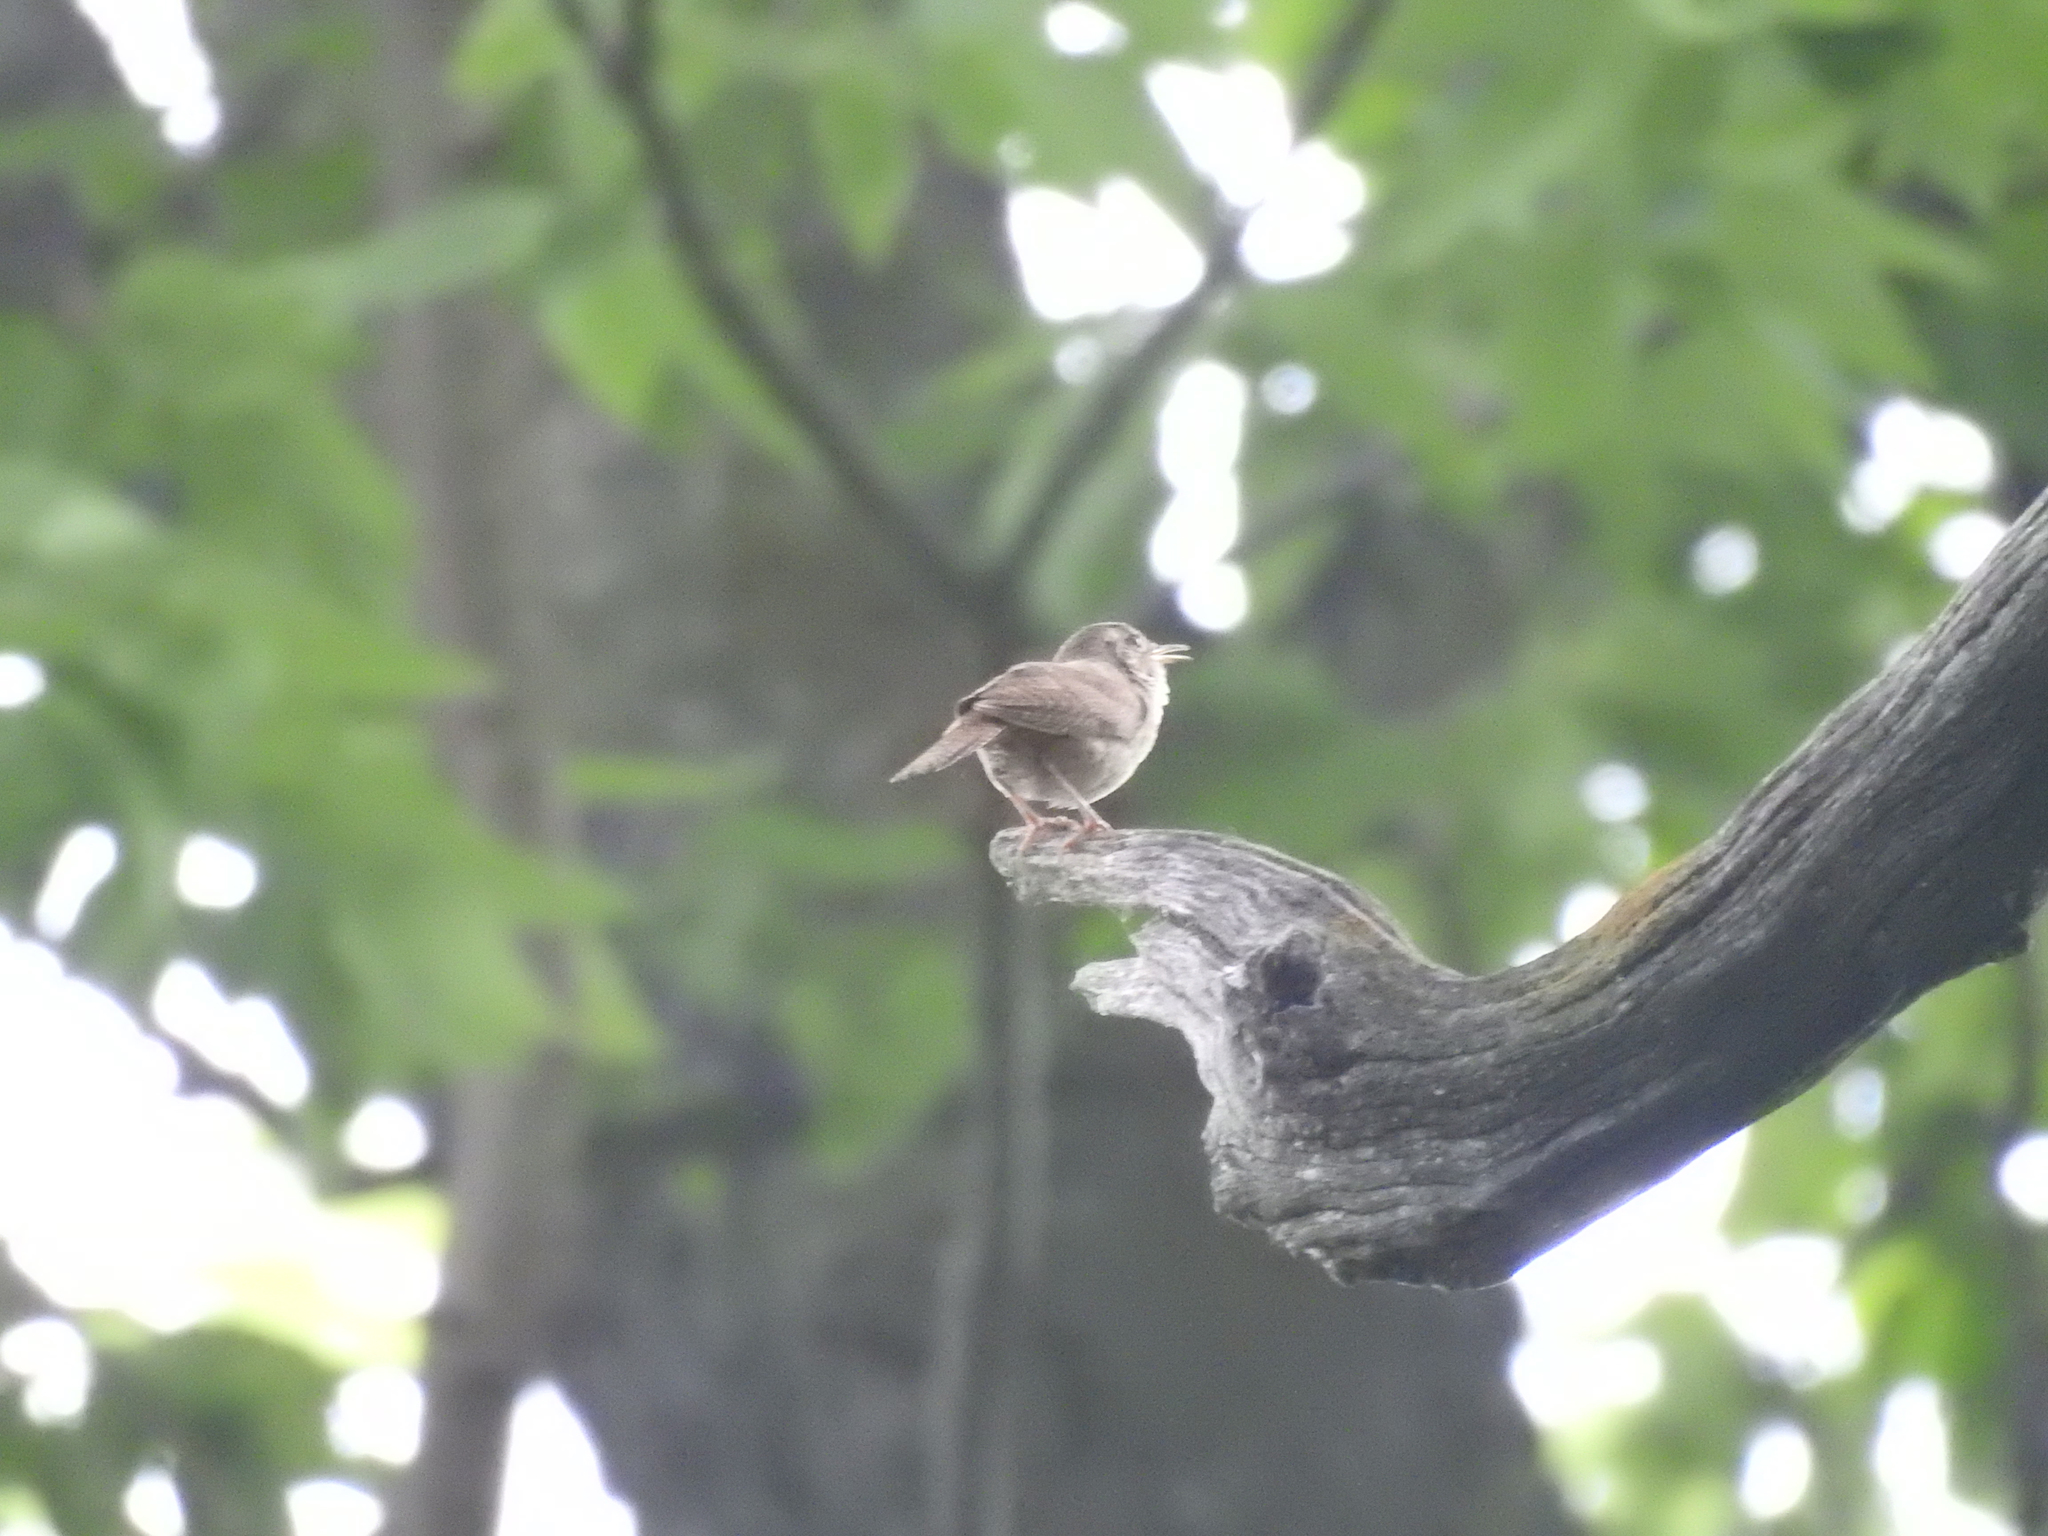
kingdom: Animalia
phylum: Chordata
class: Aves
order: Passeriformes
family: Troglodytidae
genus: Troglodytes
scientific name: Troglodytes aedon
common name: House wren
